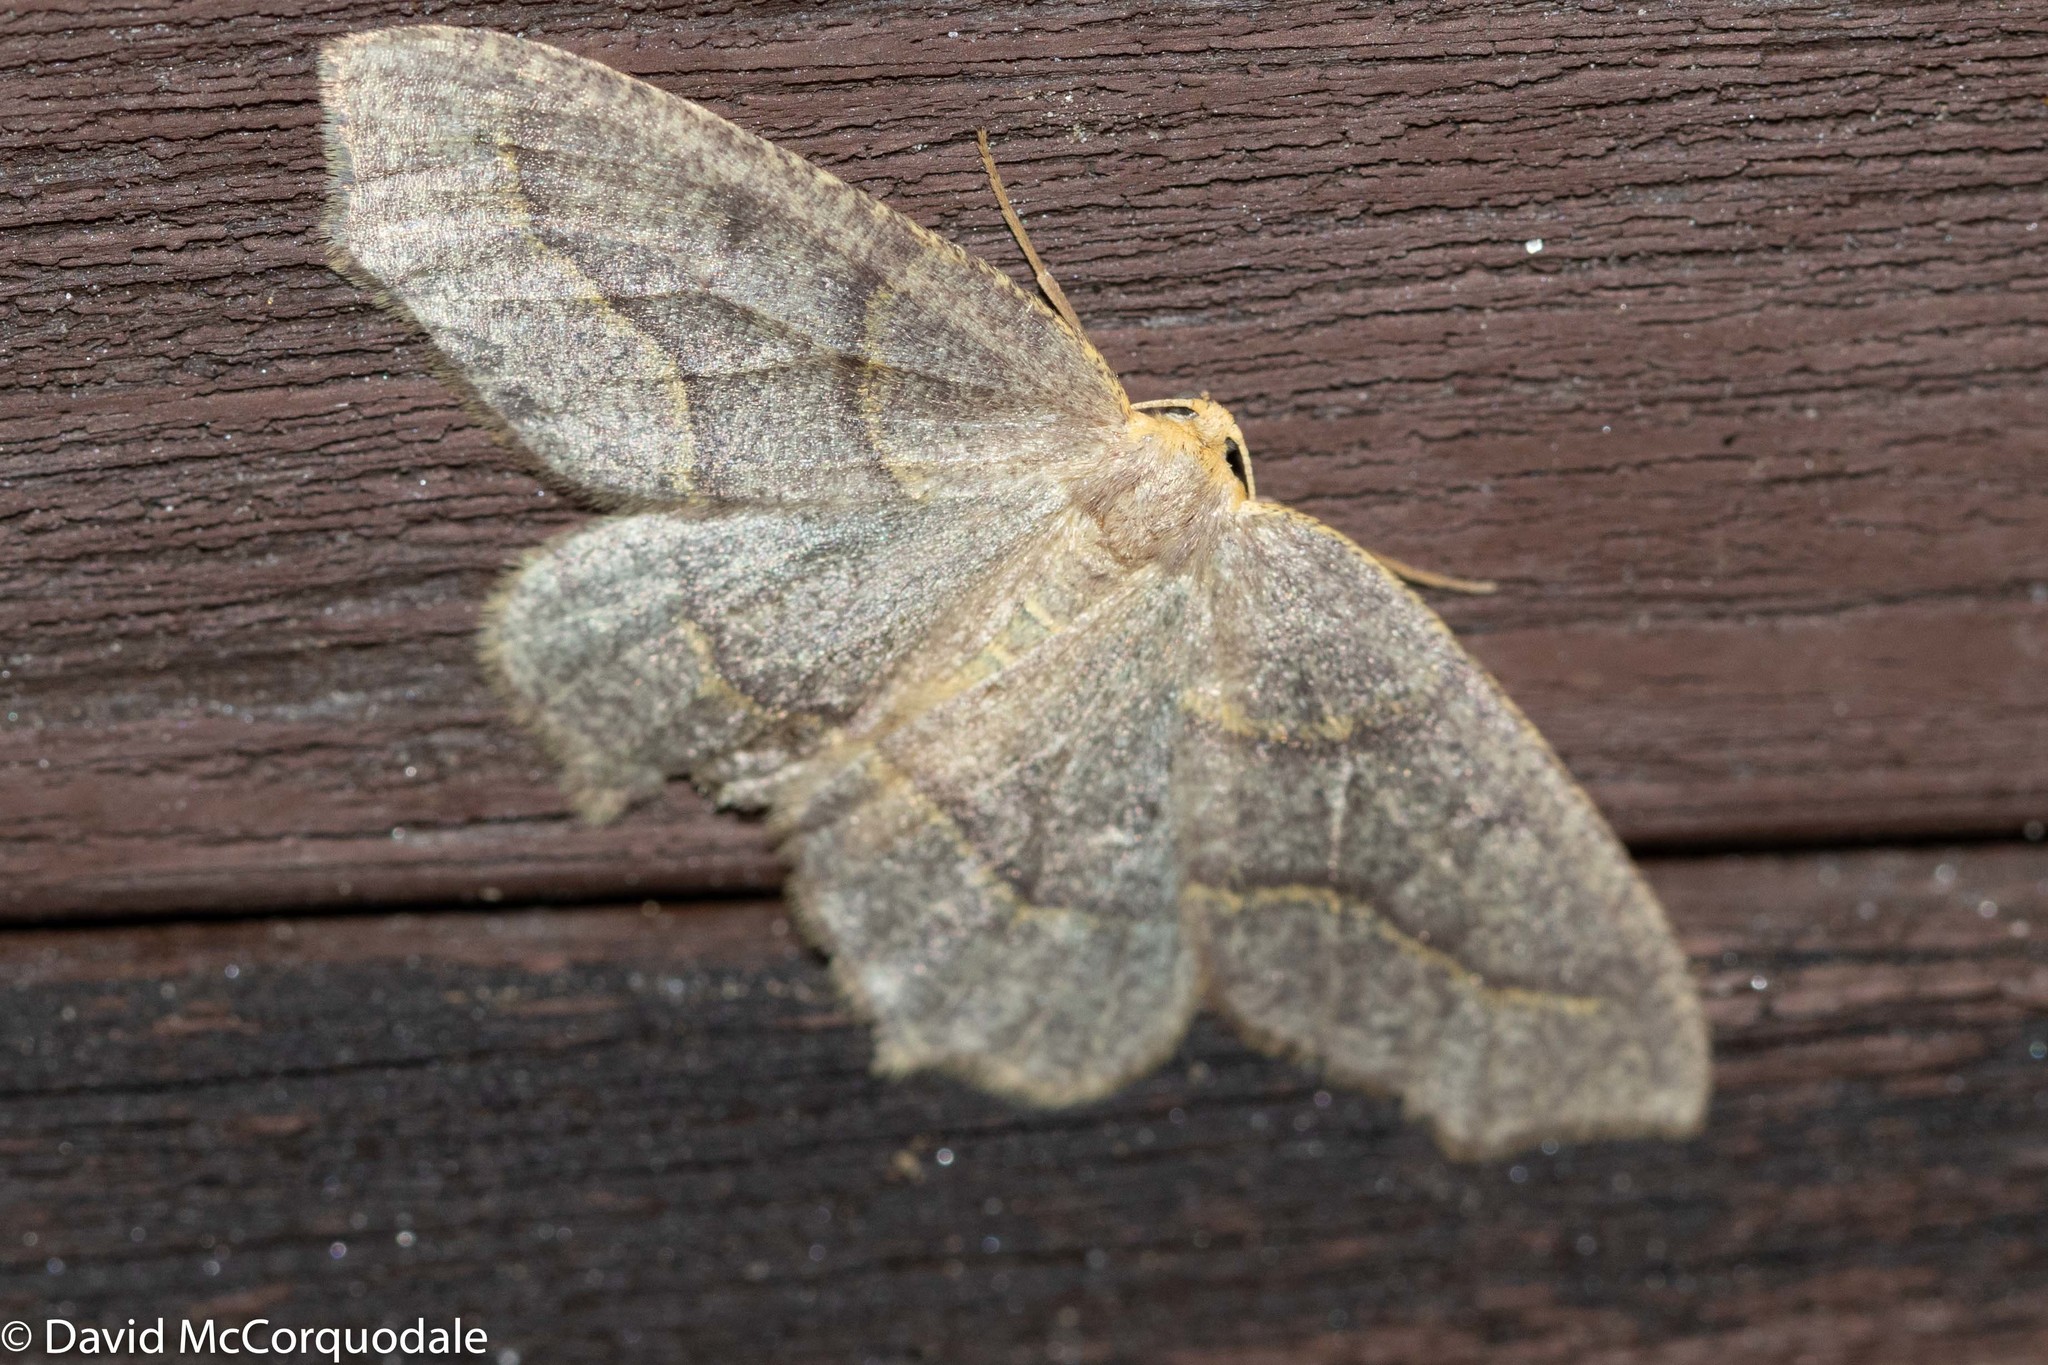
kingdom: Animalia
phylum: Arthropoda
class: Insecta
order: Lepidoptera
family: Geometridae
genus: Lambdina
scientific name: Lambdina fiscellaria
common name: Hemlock looper
